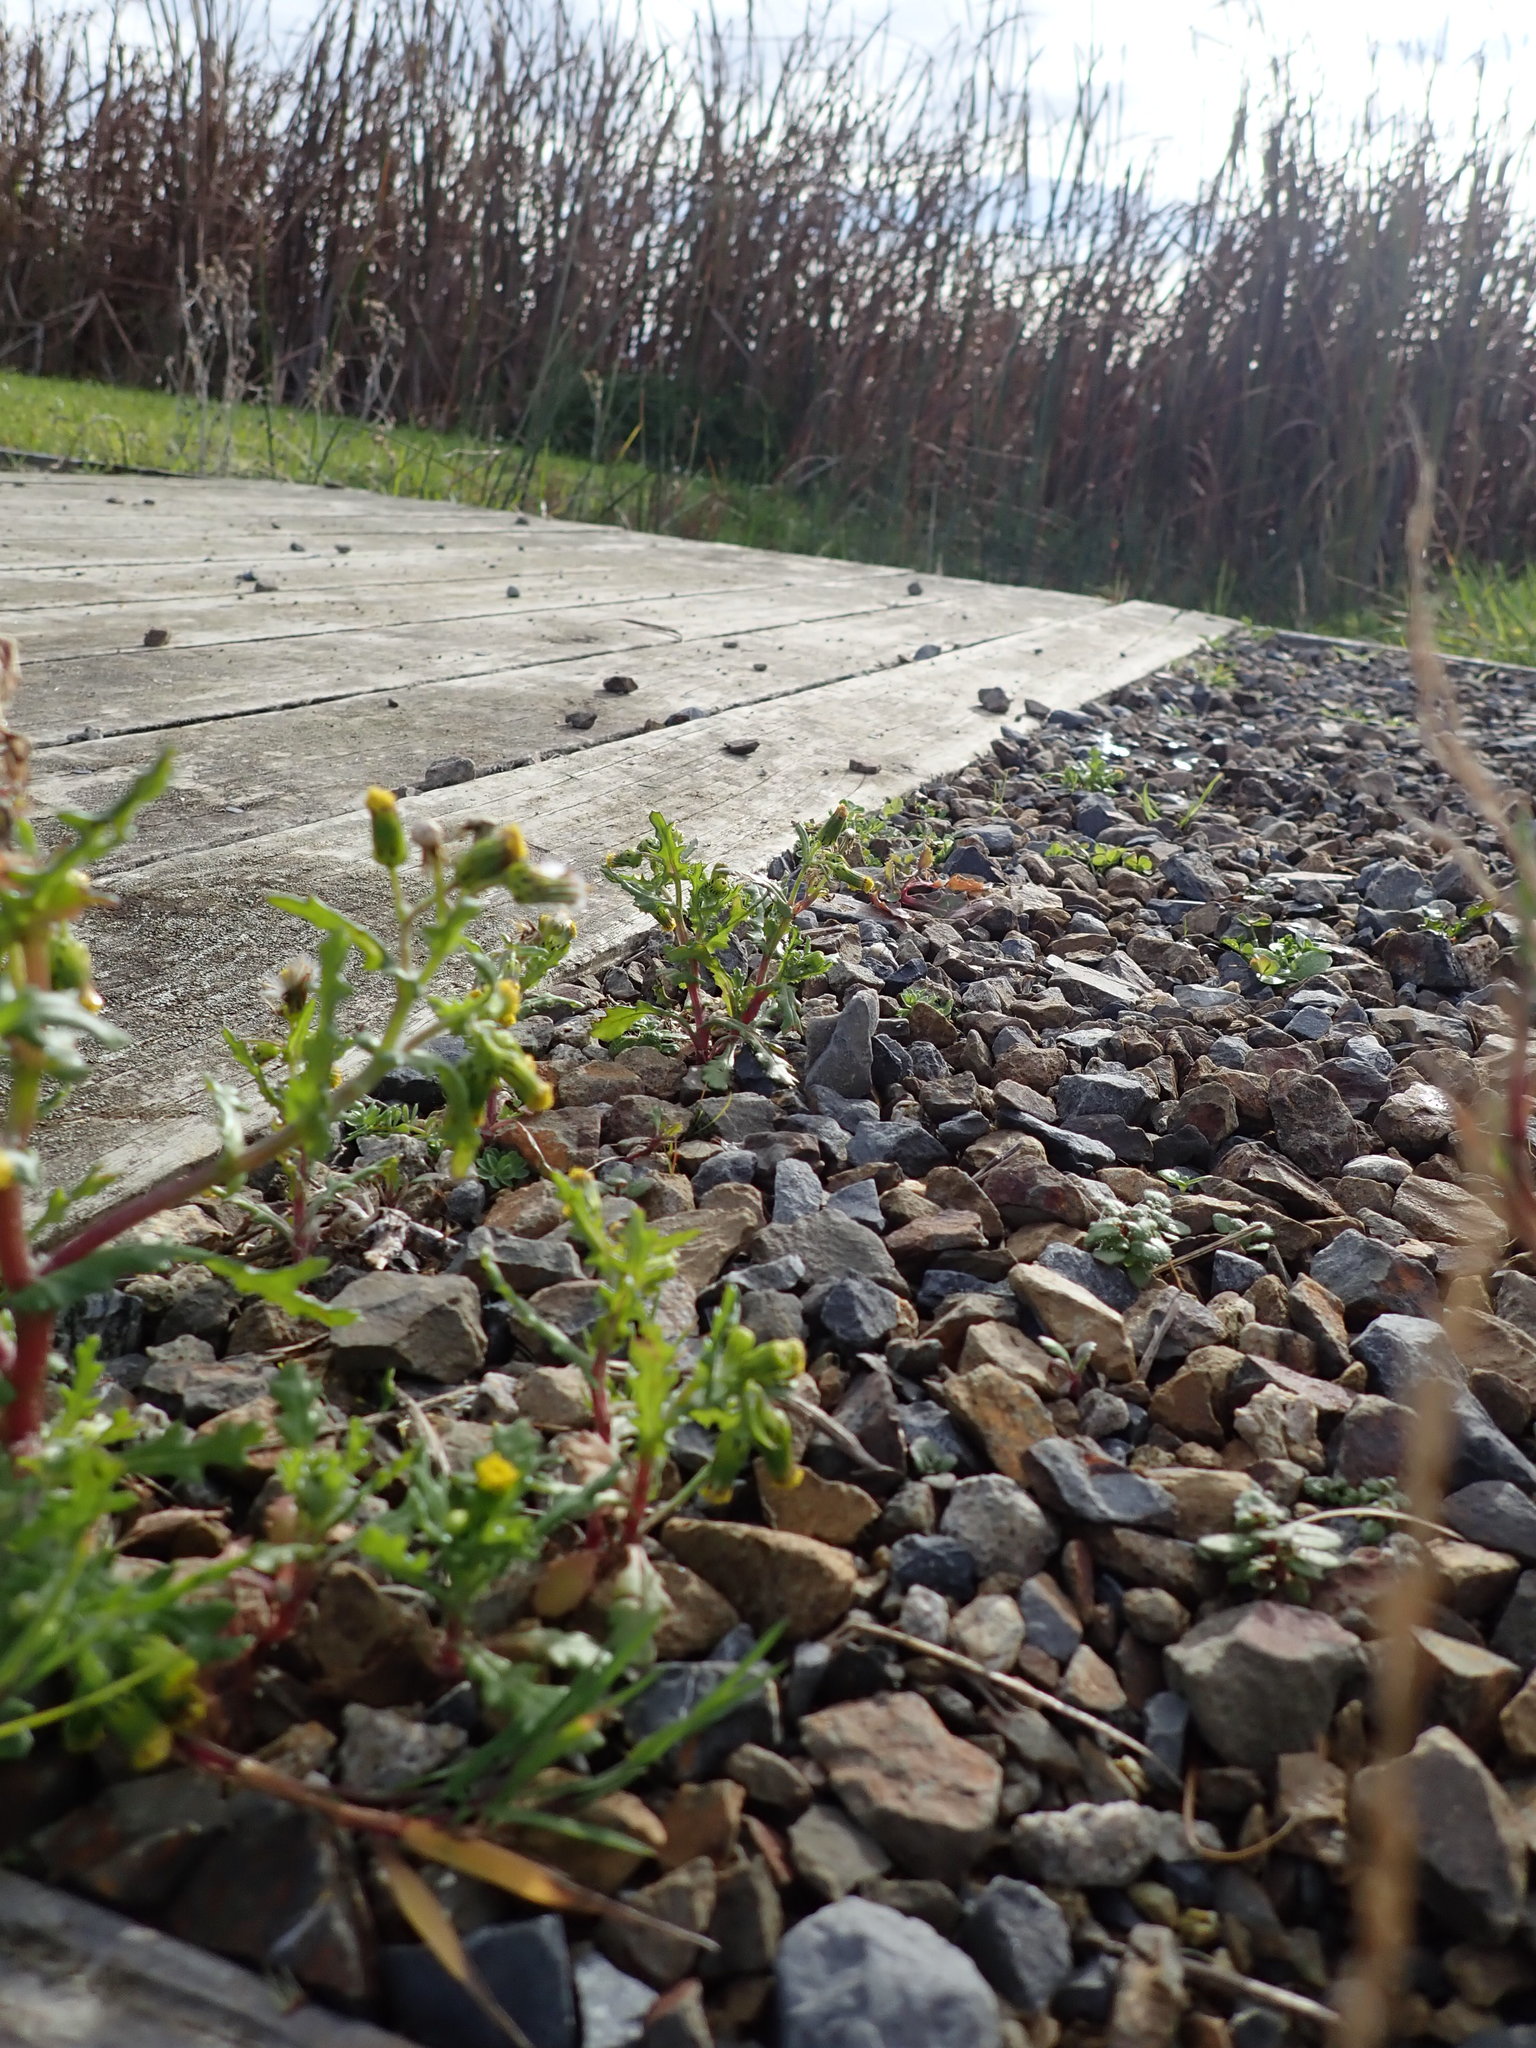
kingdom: Plantae
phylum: Tracheophyta
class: Magnoliopsida
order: Asterales
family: Asteraceae
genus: Senecio
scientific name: Senecio vulgaris
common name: Old-man-in-the-spring
